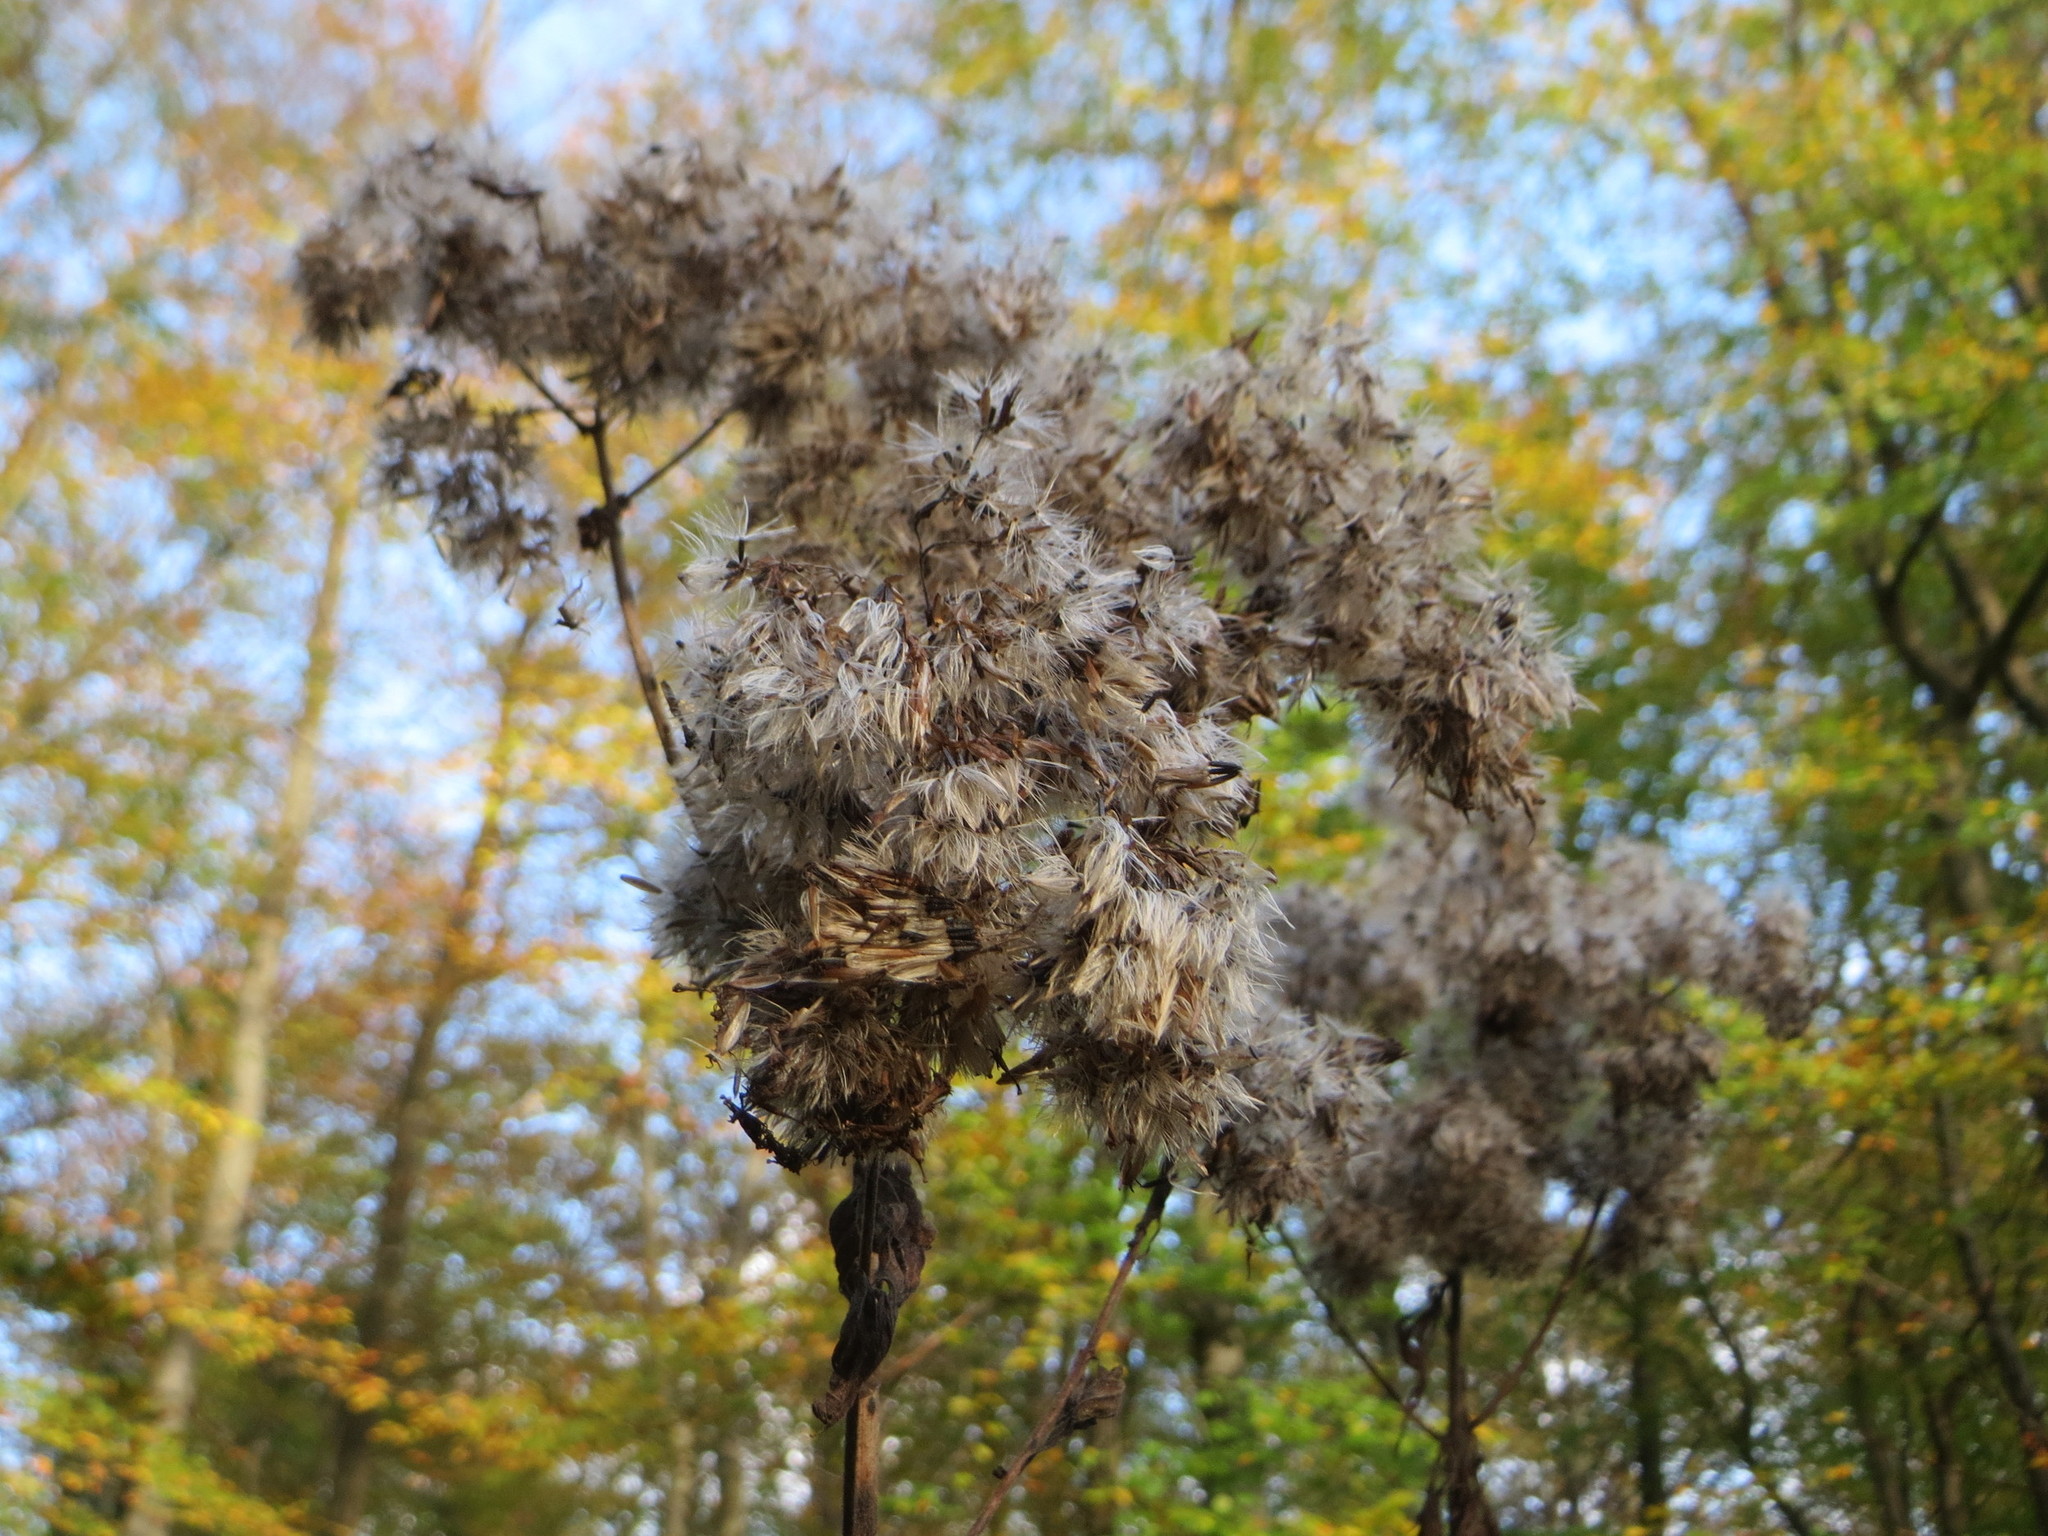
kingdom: Plantae
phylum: Tracheophyta
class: Magnoliopsida
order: Asterales
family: Asteraceae
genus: Eupatorium
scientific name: Eupatorium cannabinum
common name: Hemp-agrimony
